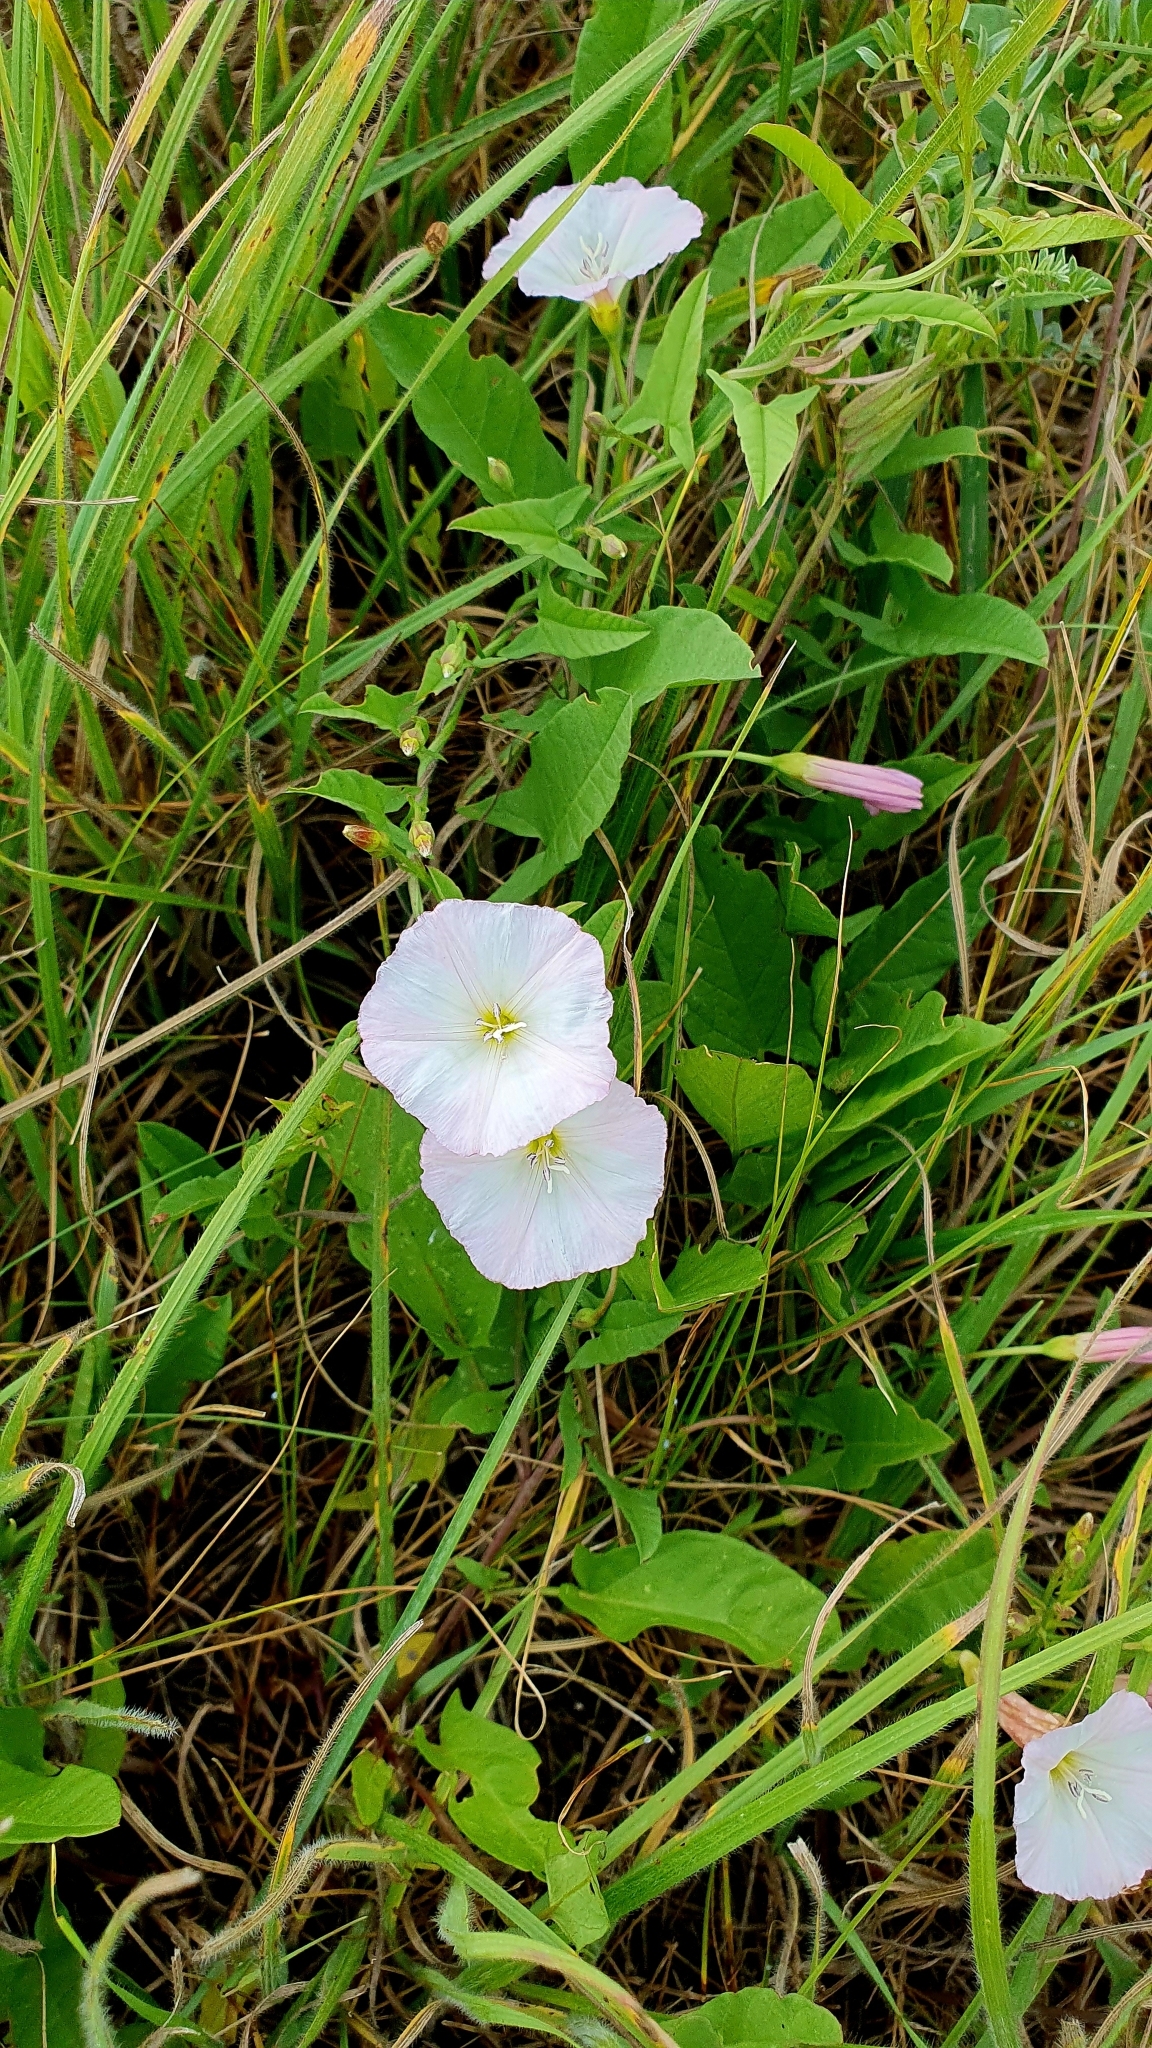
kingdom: Plantae
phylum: Tracheophyta
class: Magnoliopsida
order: Solanales
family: Convolvulaceae
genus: Convolvulus
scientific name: Convolvulus arvensis
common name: Field bindweed
